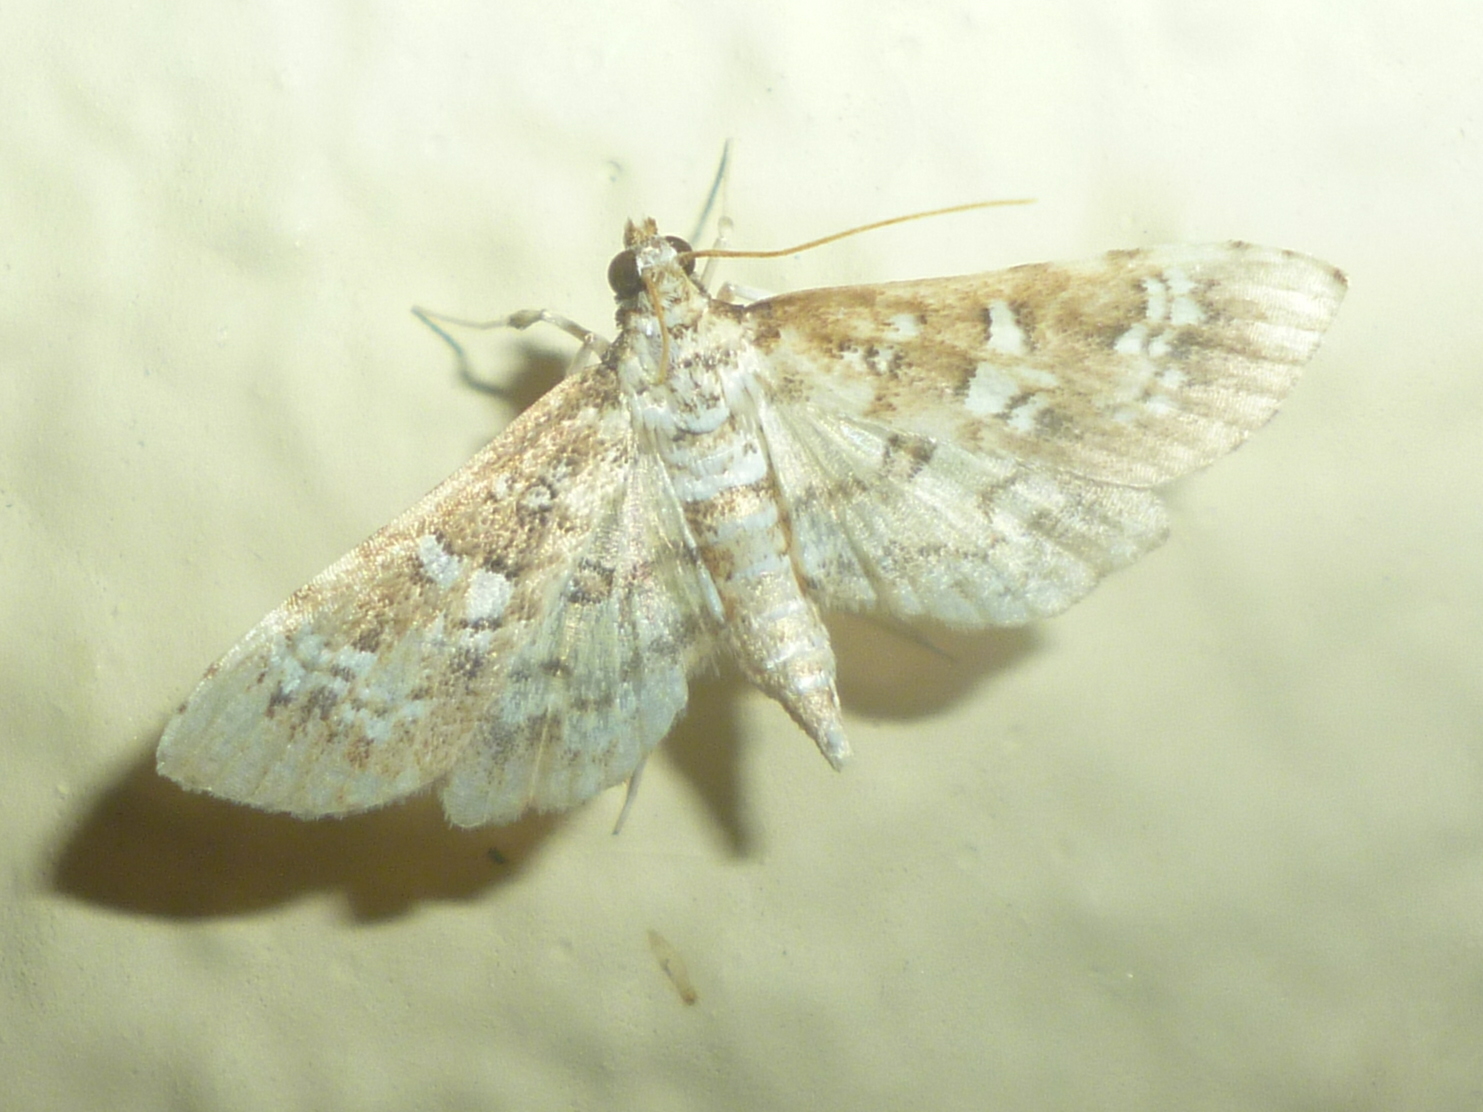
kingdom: Animalia
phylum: Arthropoda
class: Insecta
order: Lepidoptera
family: Crambidae
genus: Samea
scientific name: Samea multiplicalis
